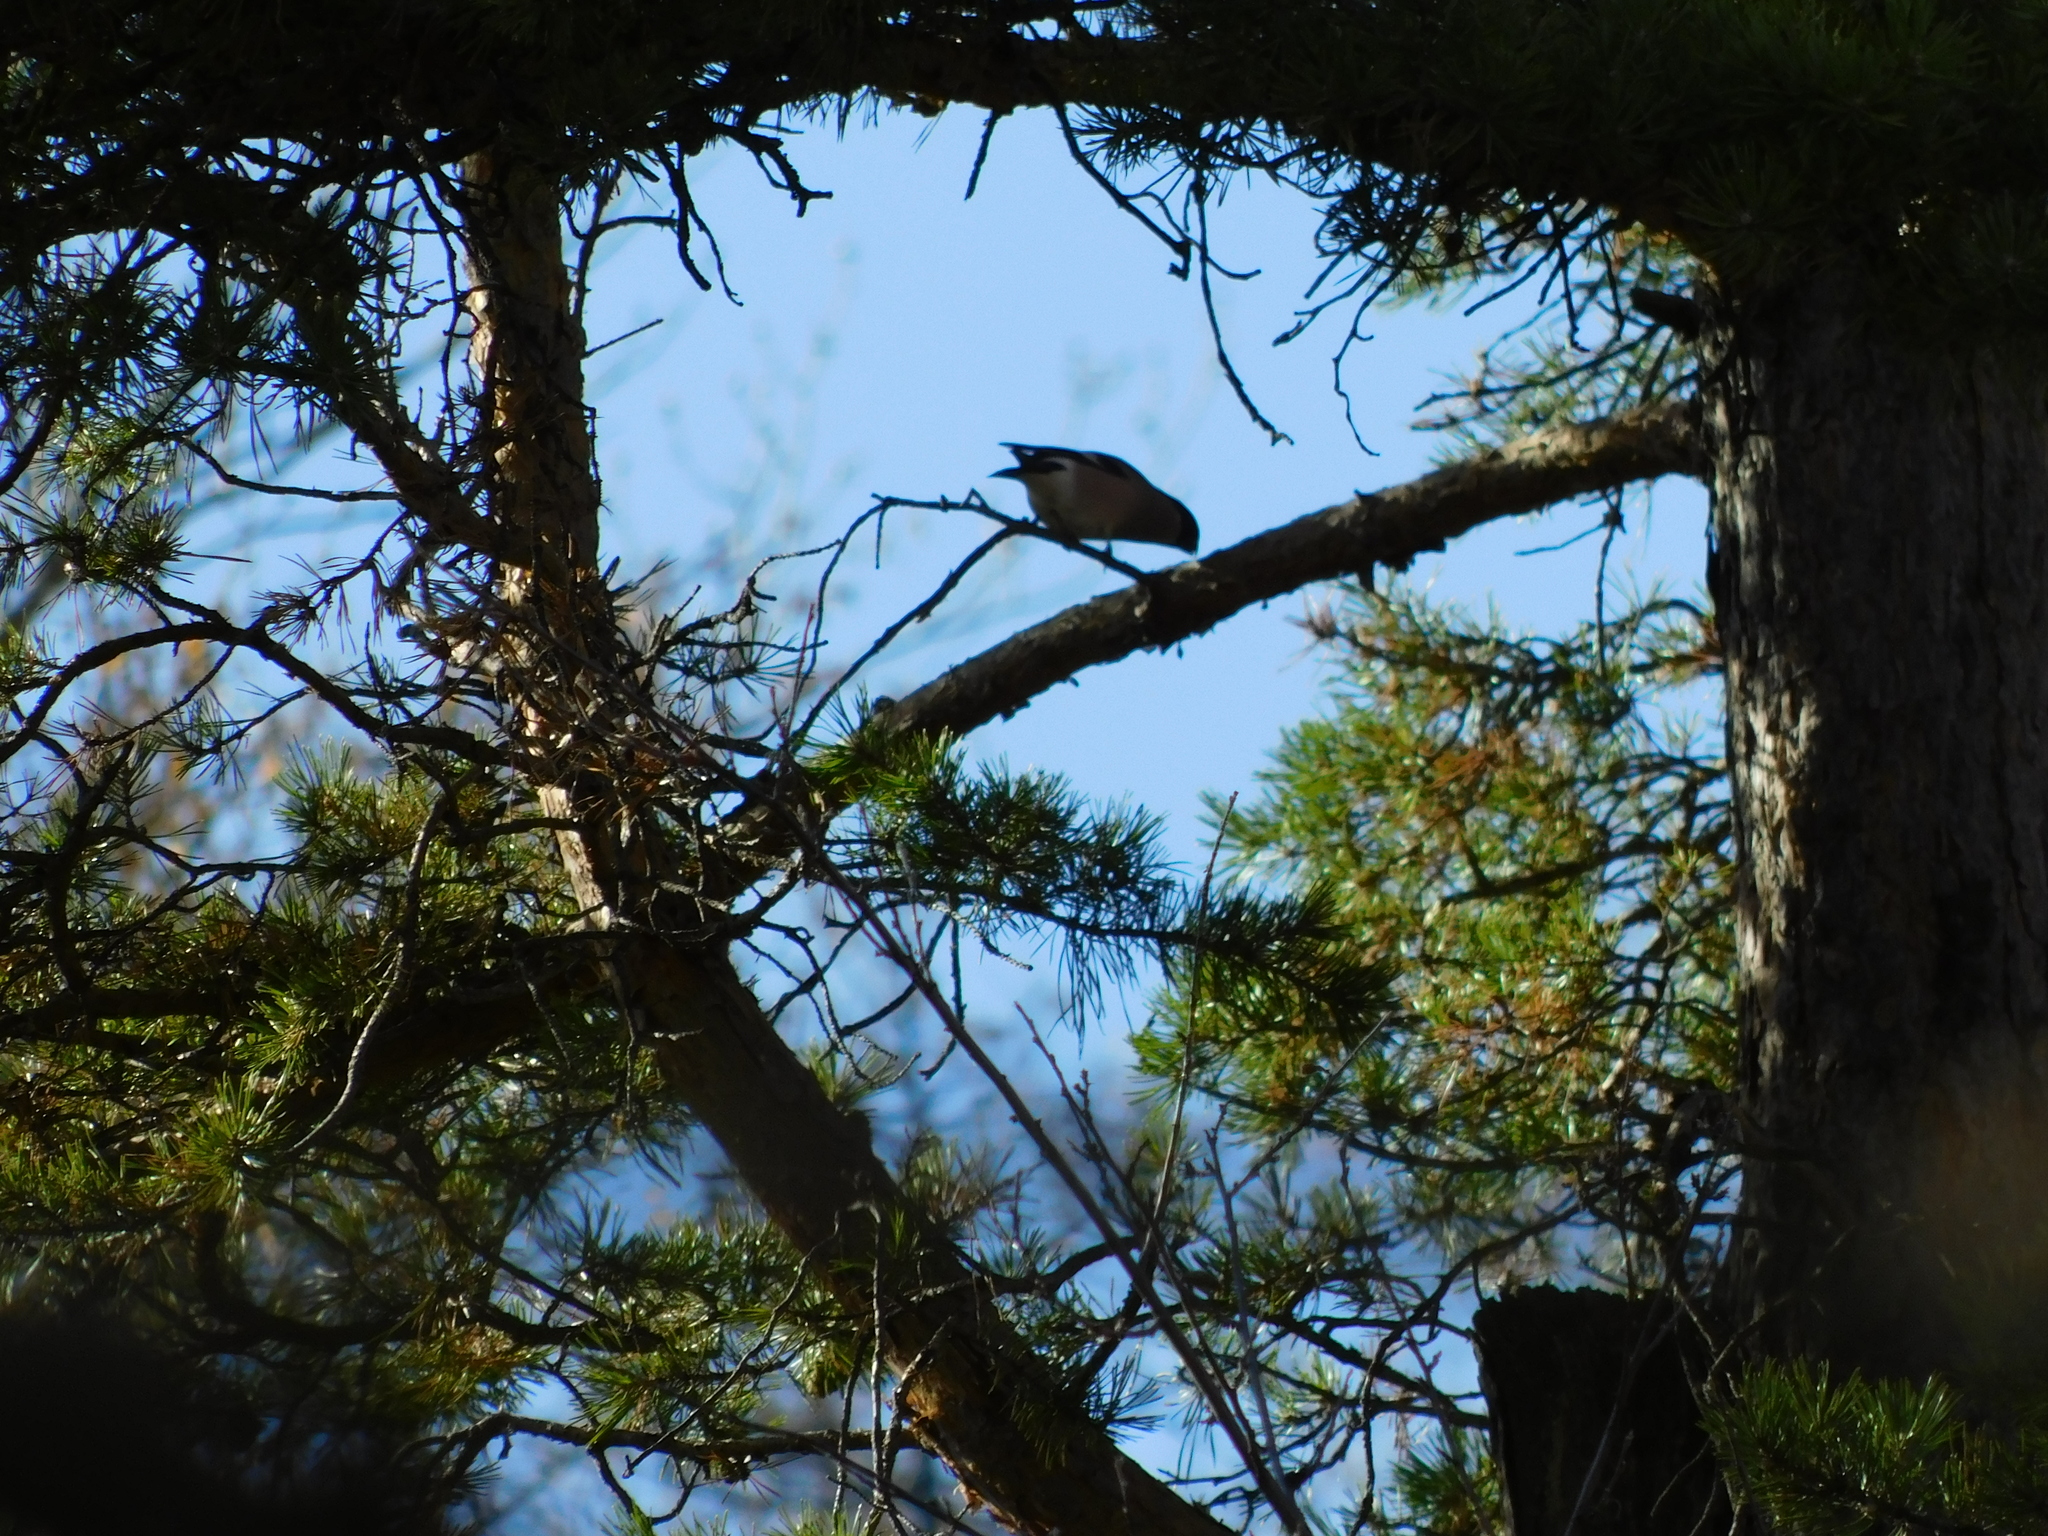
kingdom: Animalia
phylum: Chordata
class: Aves
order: Passeriformes
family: Fringillidae
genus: Pyrrhula
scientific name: Pyrrhula pyrrhula
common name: Eurasian bullfinch
